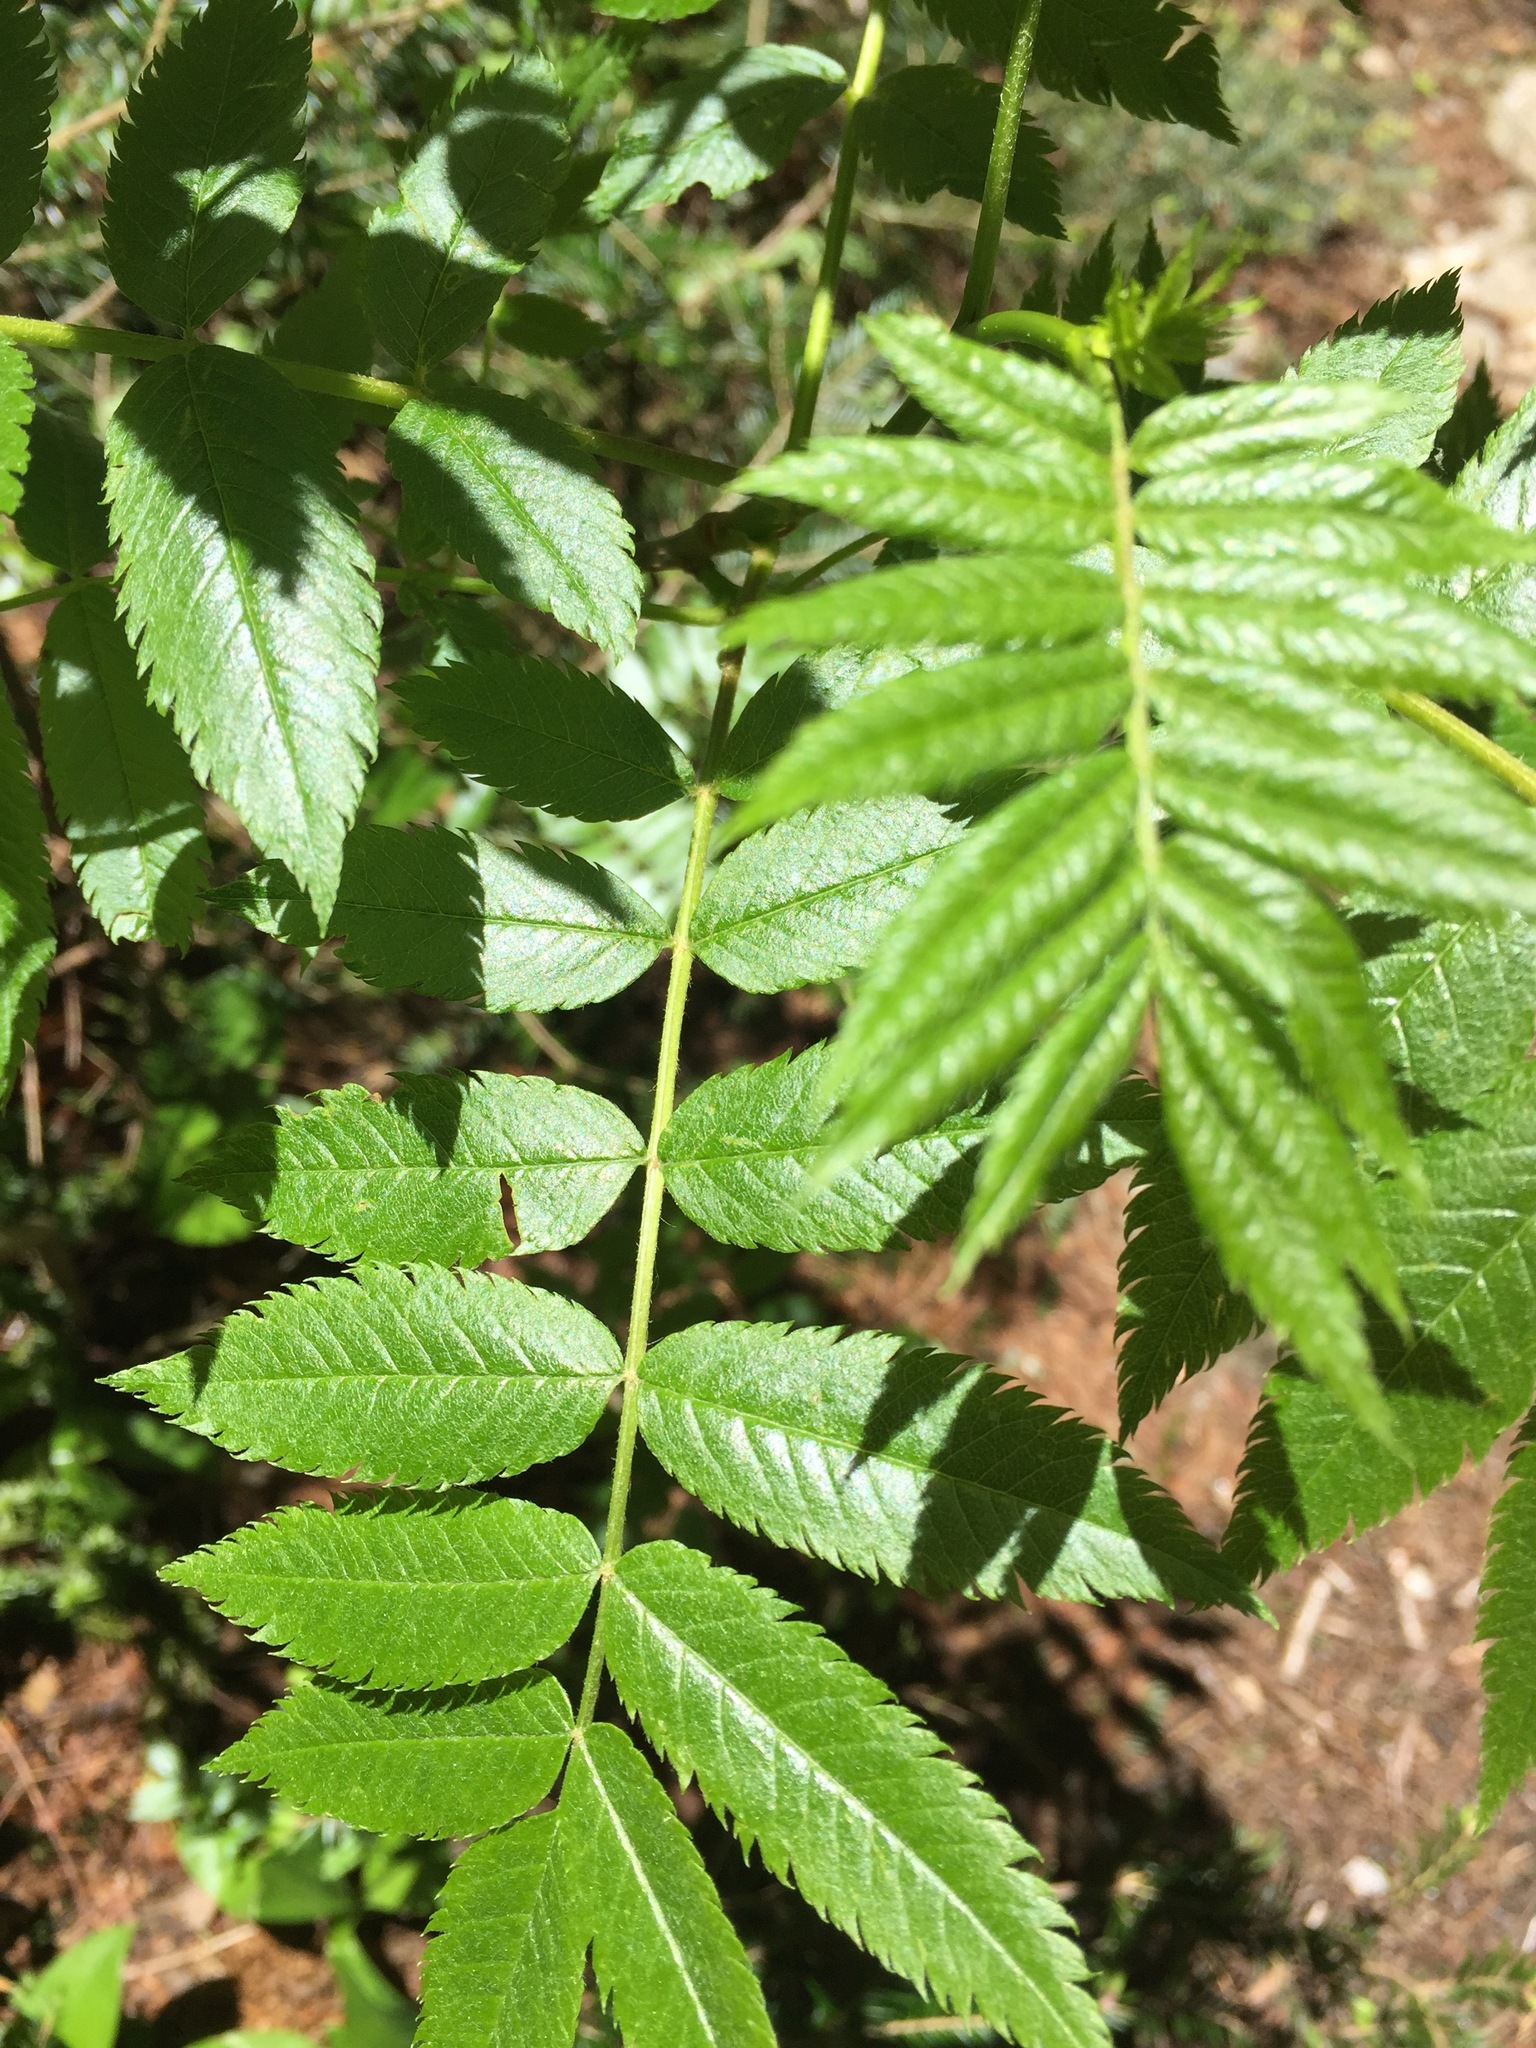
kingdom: Plantae
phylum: Tracheophyta
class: Magnoliopsida
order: Rosales
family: Rosaceae
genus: Sorbus
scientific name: Sorbus americana
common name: American mountain-ash
